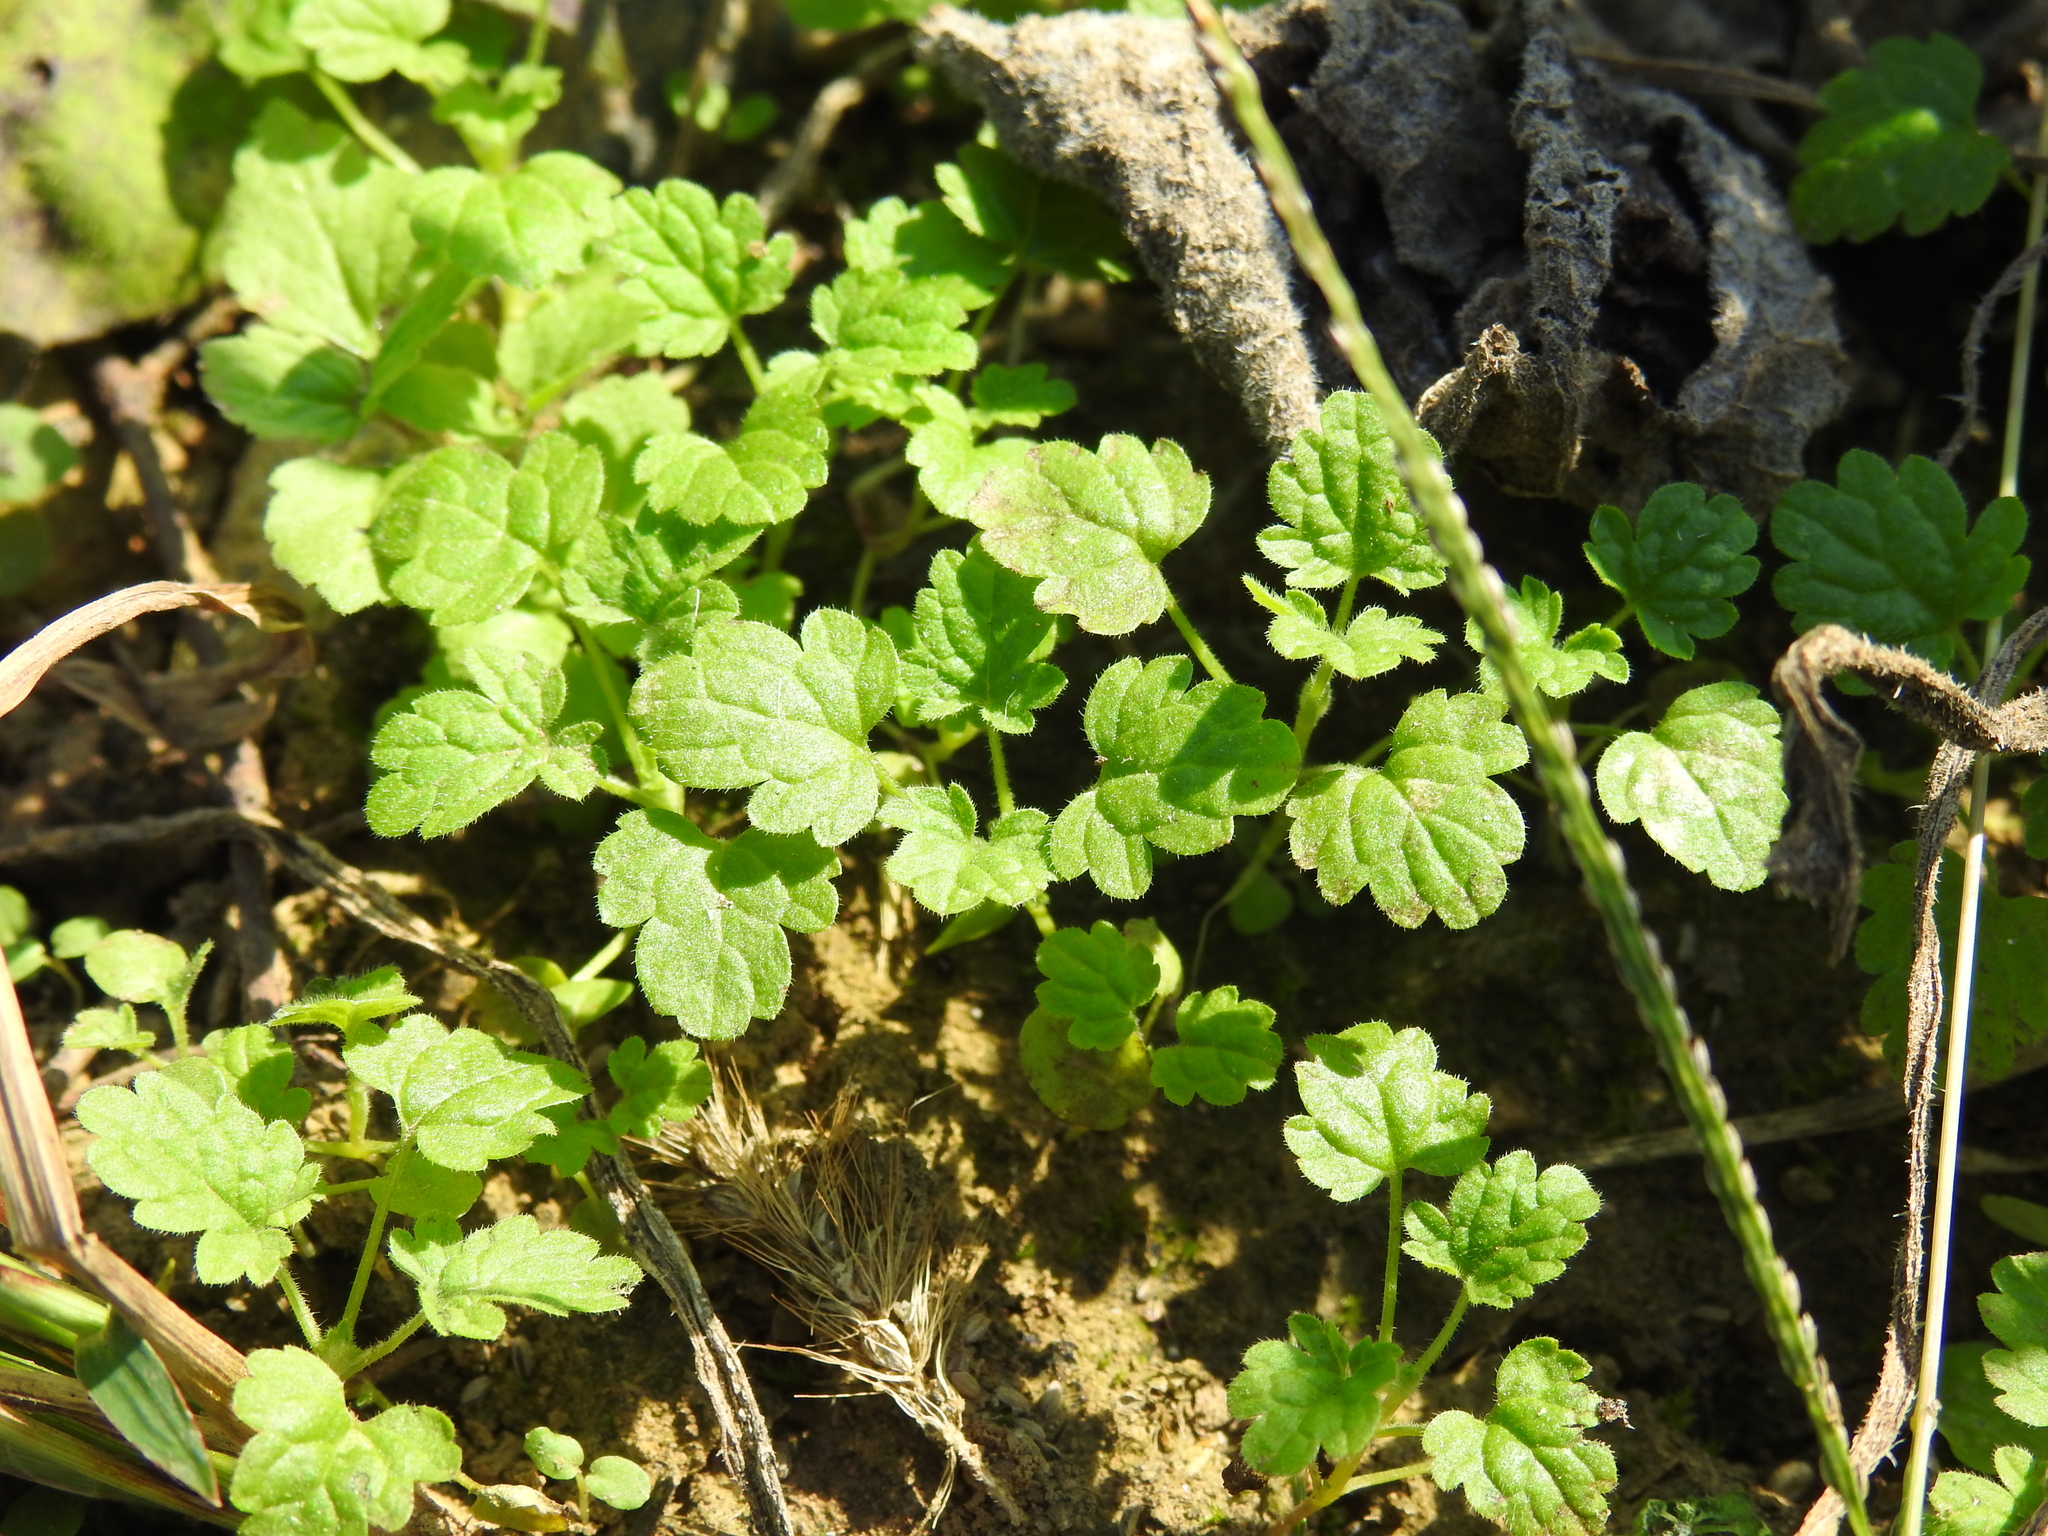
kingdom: Plantae
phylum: Tracheophyta
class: Magnoliopsida
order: Lamiales
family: Lamiaceae
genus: Lamium
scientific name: Lamium amplexicaule
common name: Henbit dead-nettle
